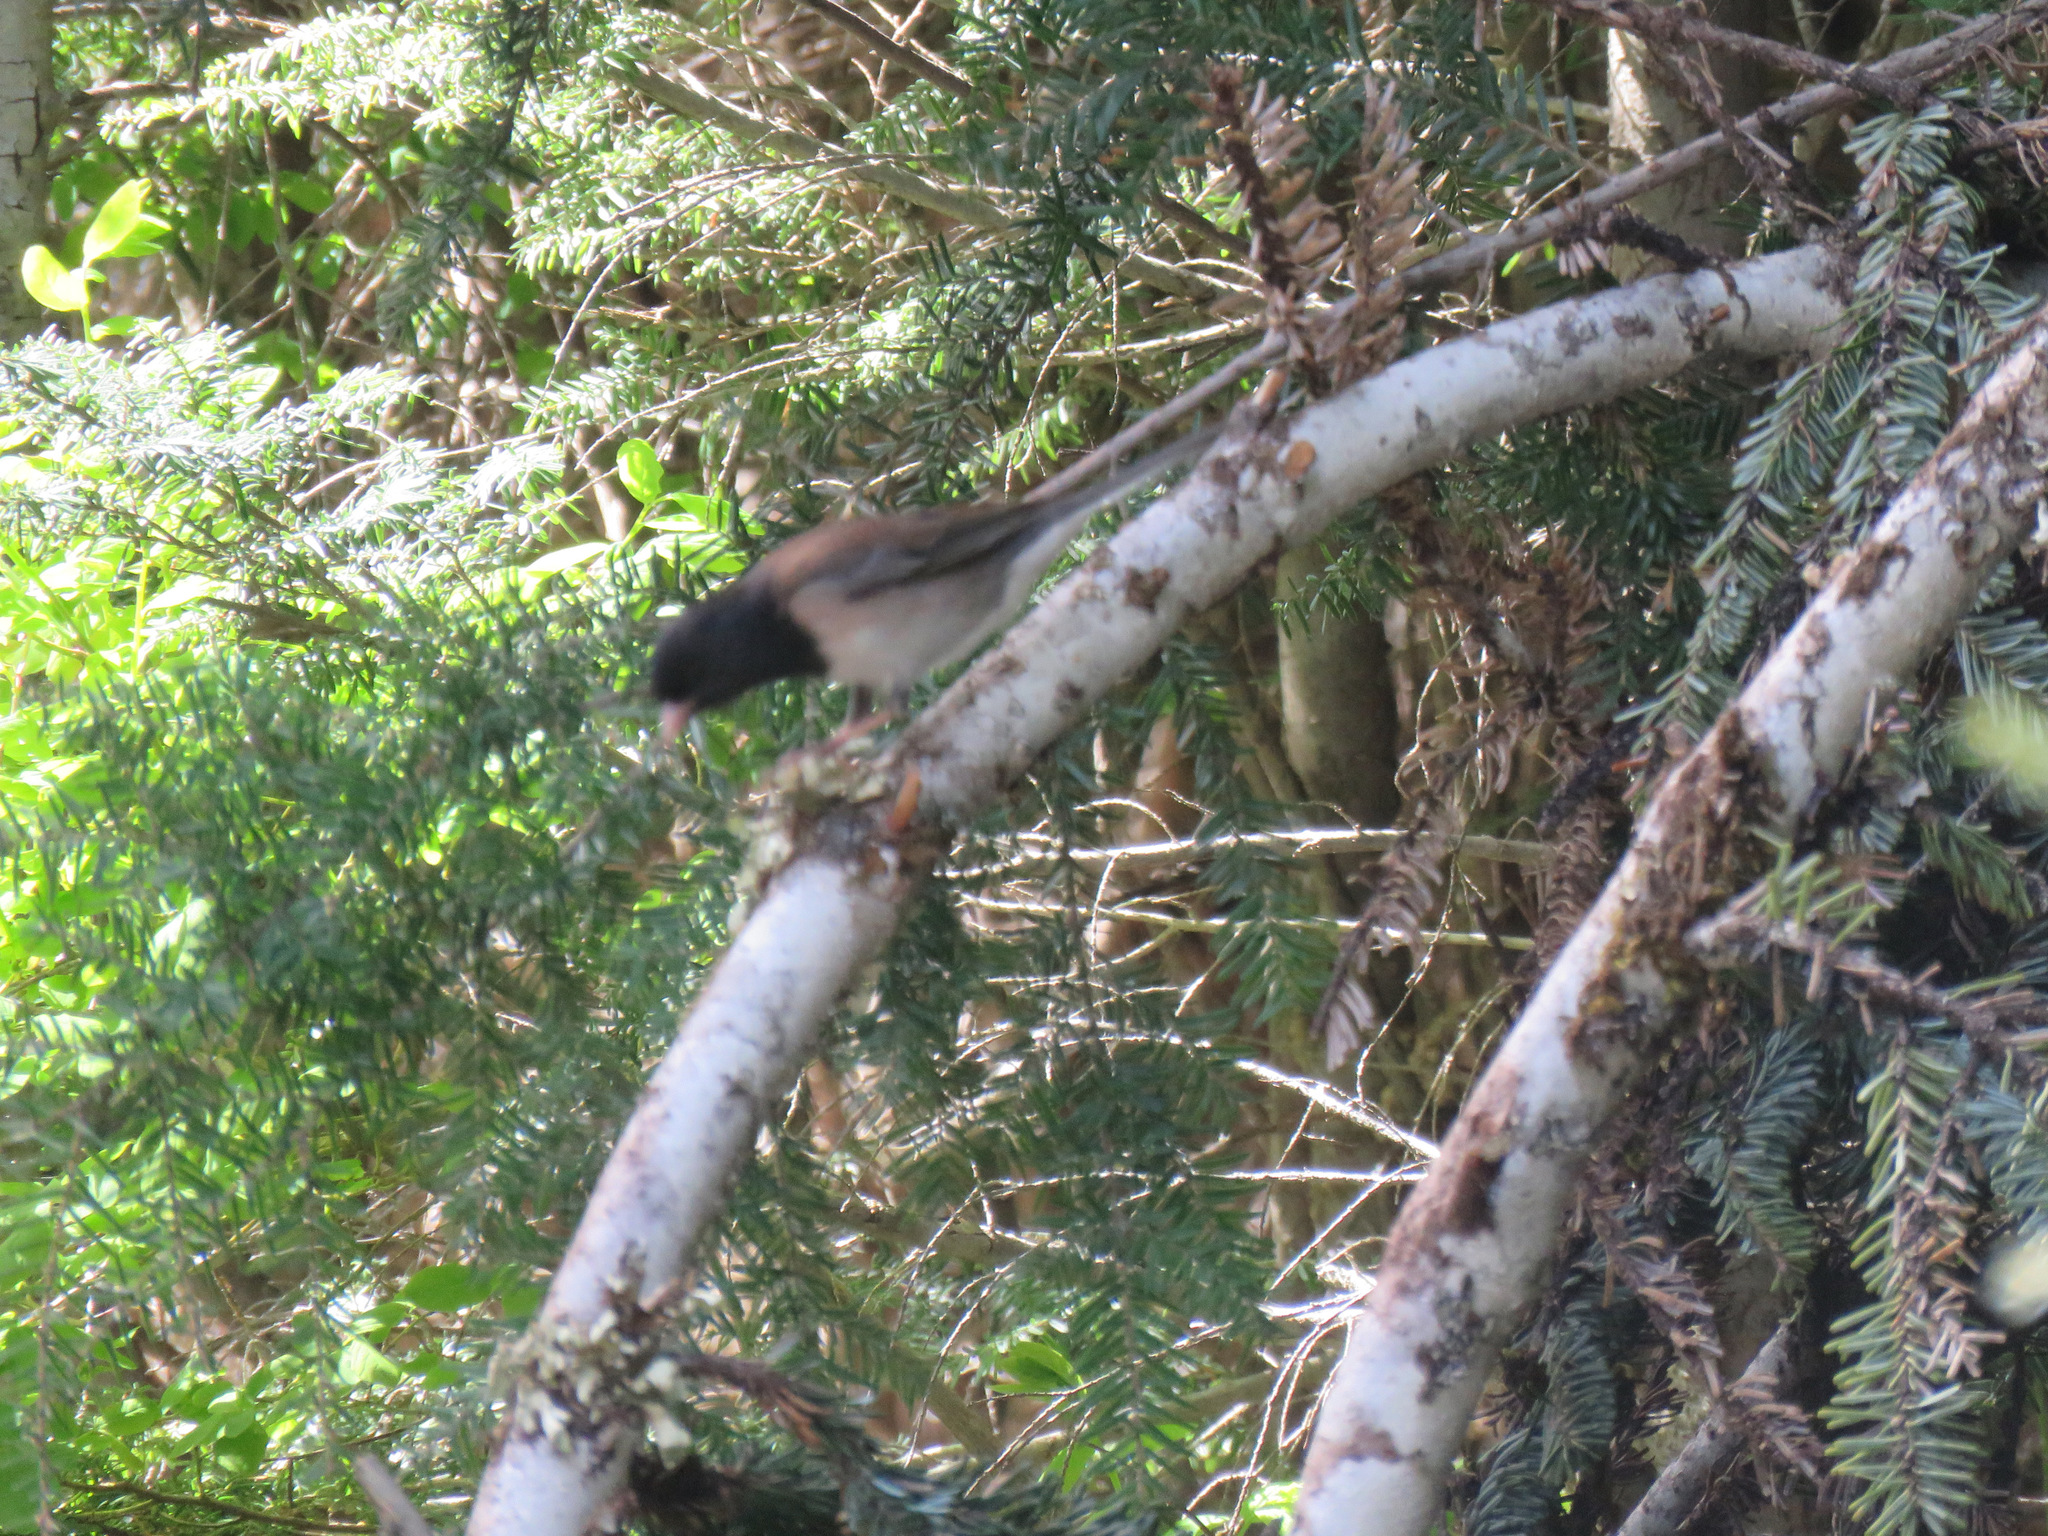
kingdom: Animalia
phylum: Chordata
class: Aves
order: Passeriformes
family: Passerellidae
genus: Junco
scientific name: Junco hyemalis
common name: Dark-eyed junco
